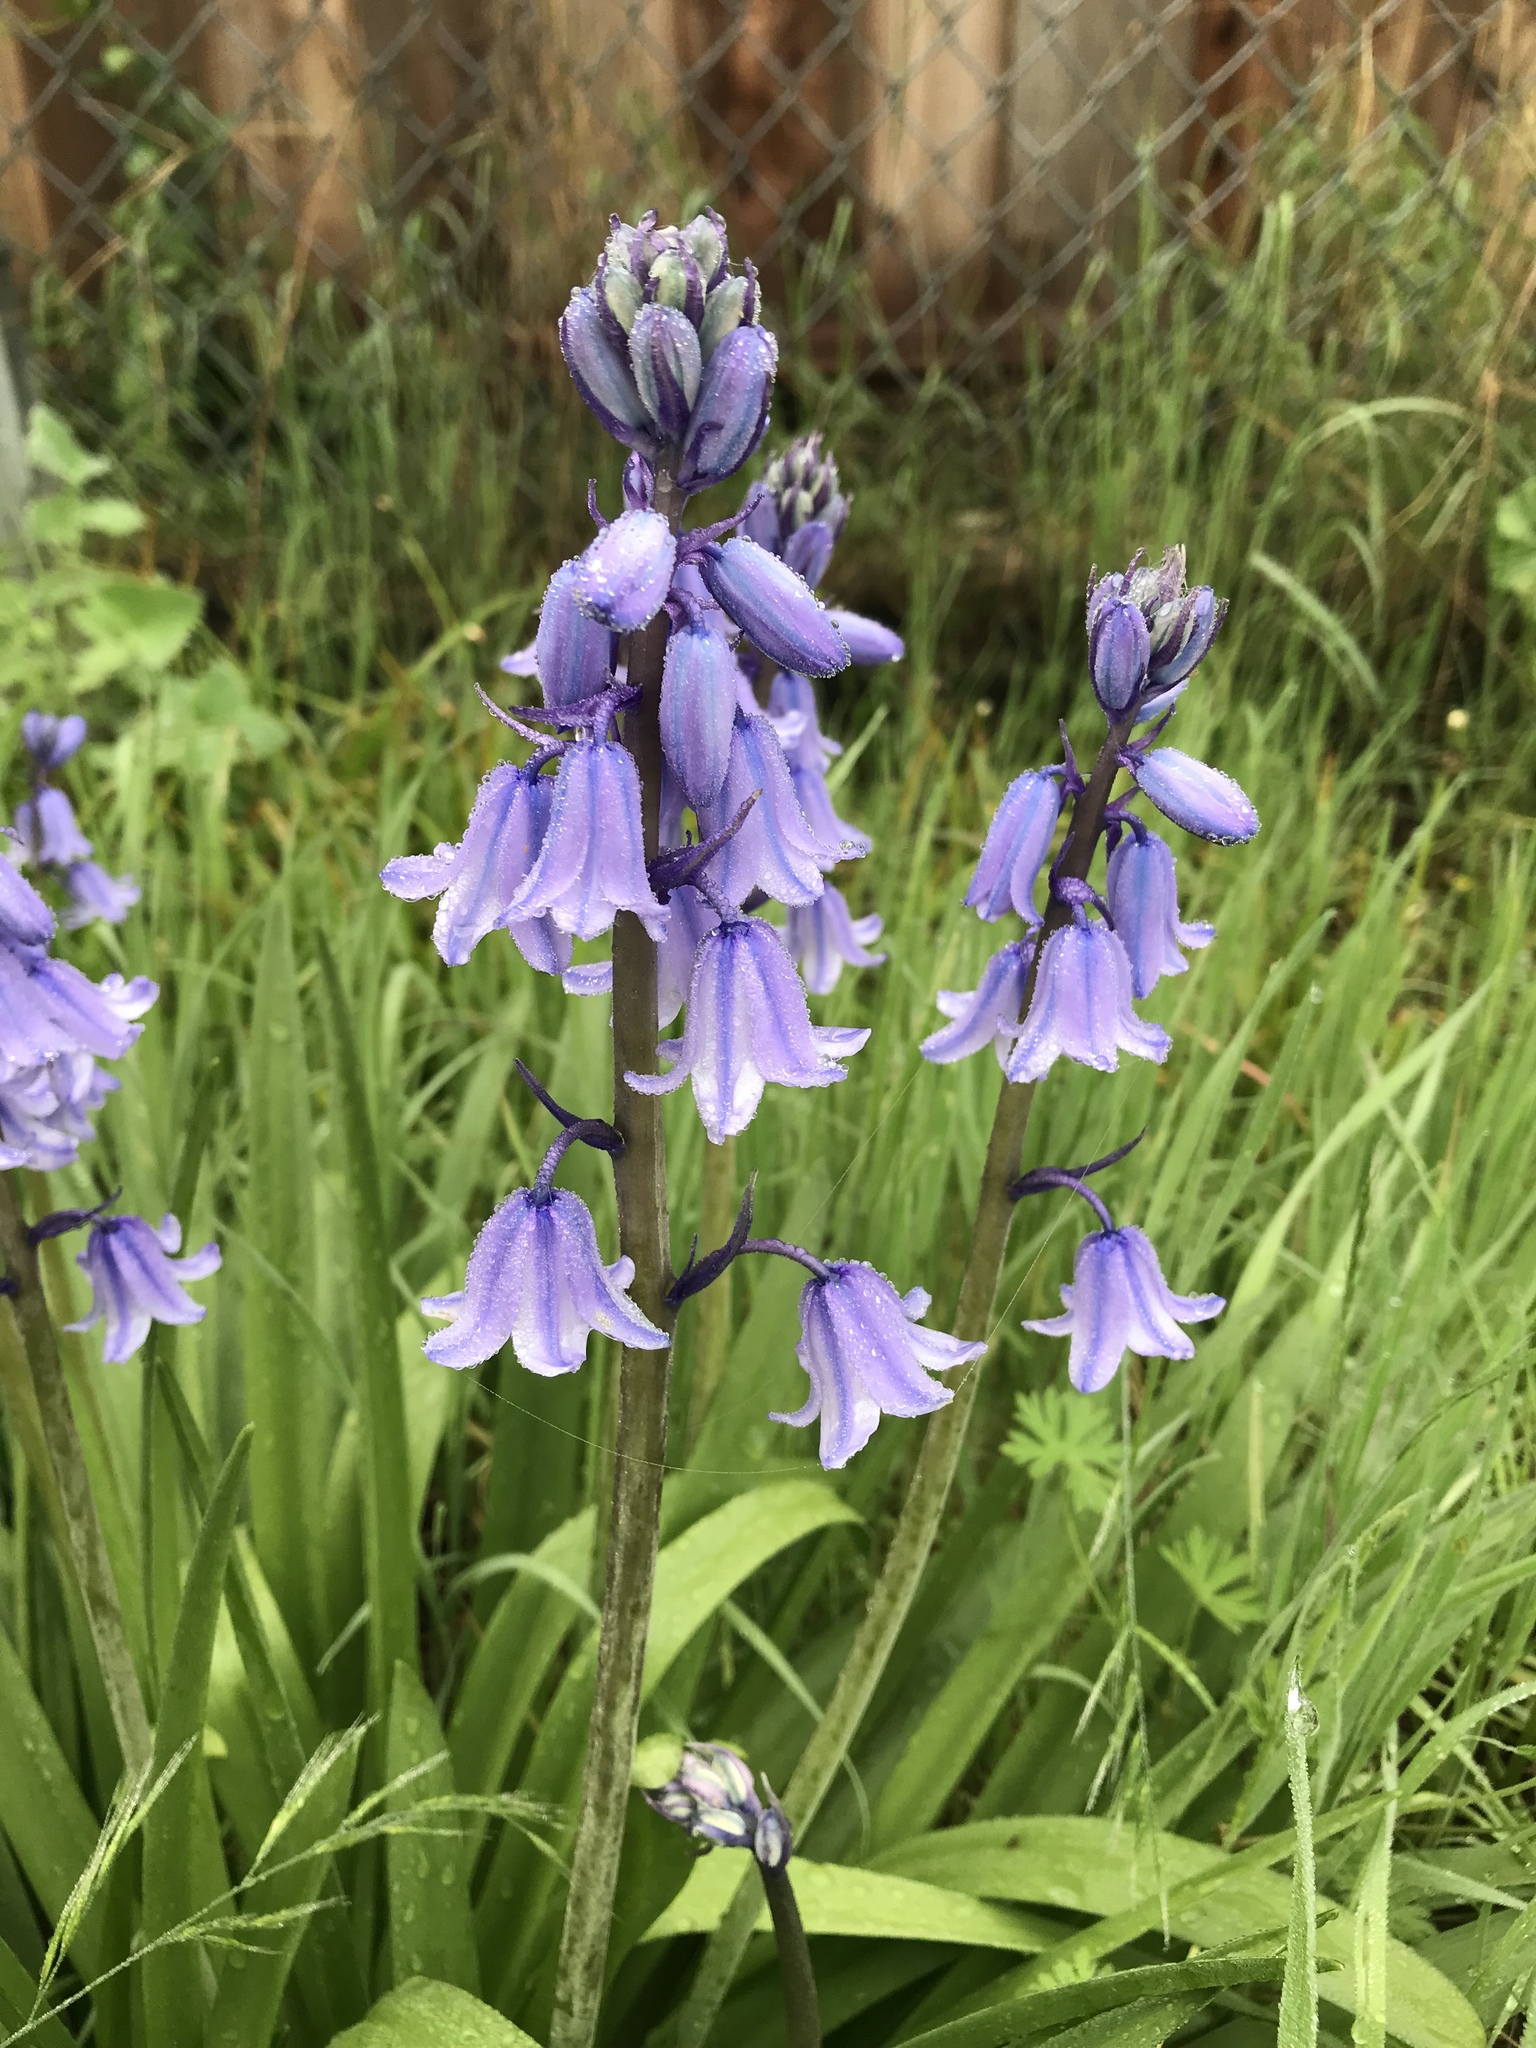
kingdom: Plantae
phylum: Tracheophyta
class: Liliopsida
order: Asparagales
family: Asparagaceae
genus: Hyacinthoides
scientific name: Hyacinthoides hispanica
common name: Spanish bluebell
